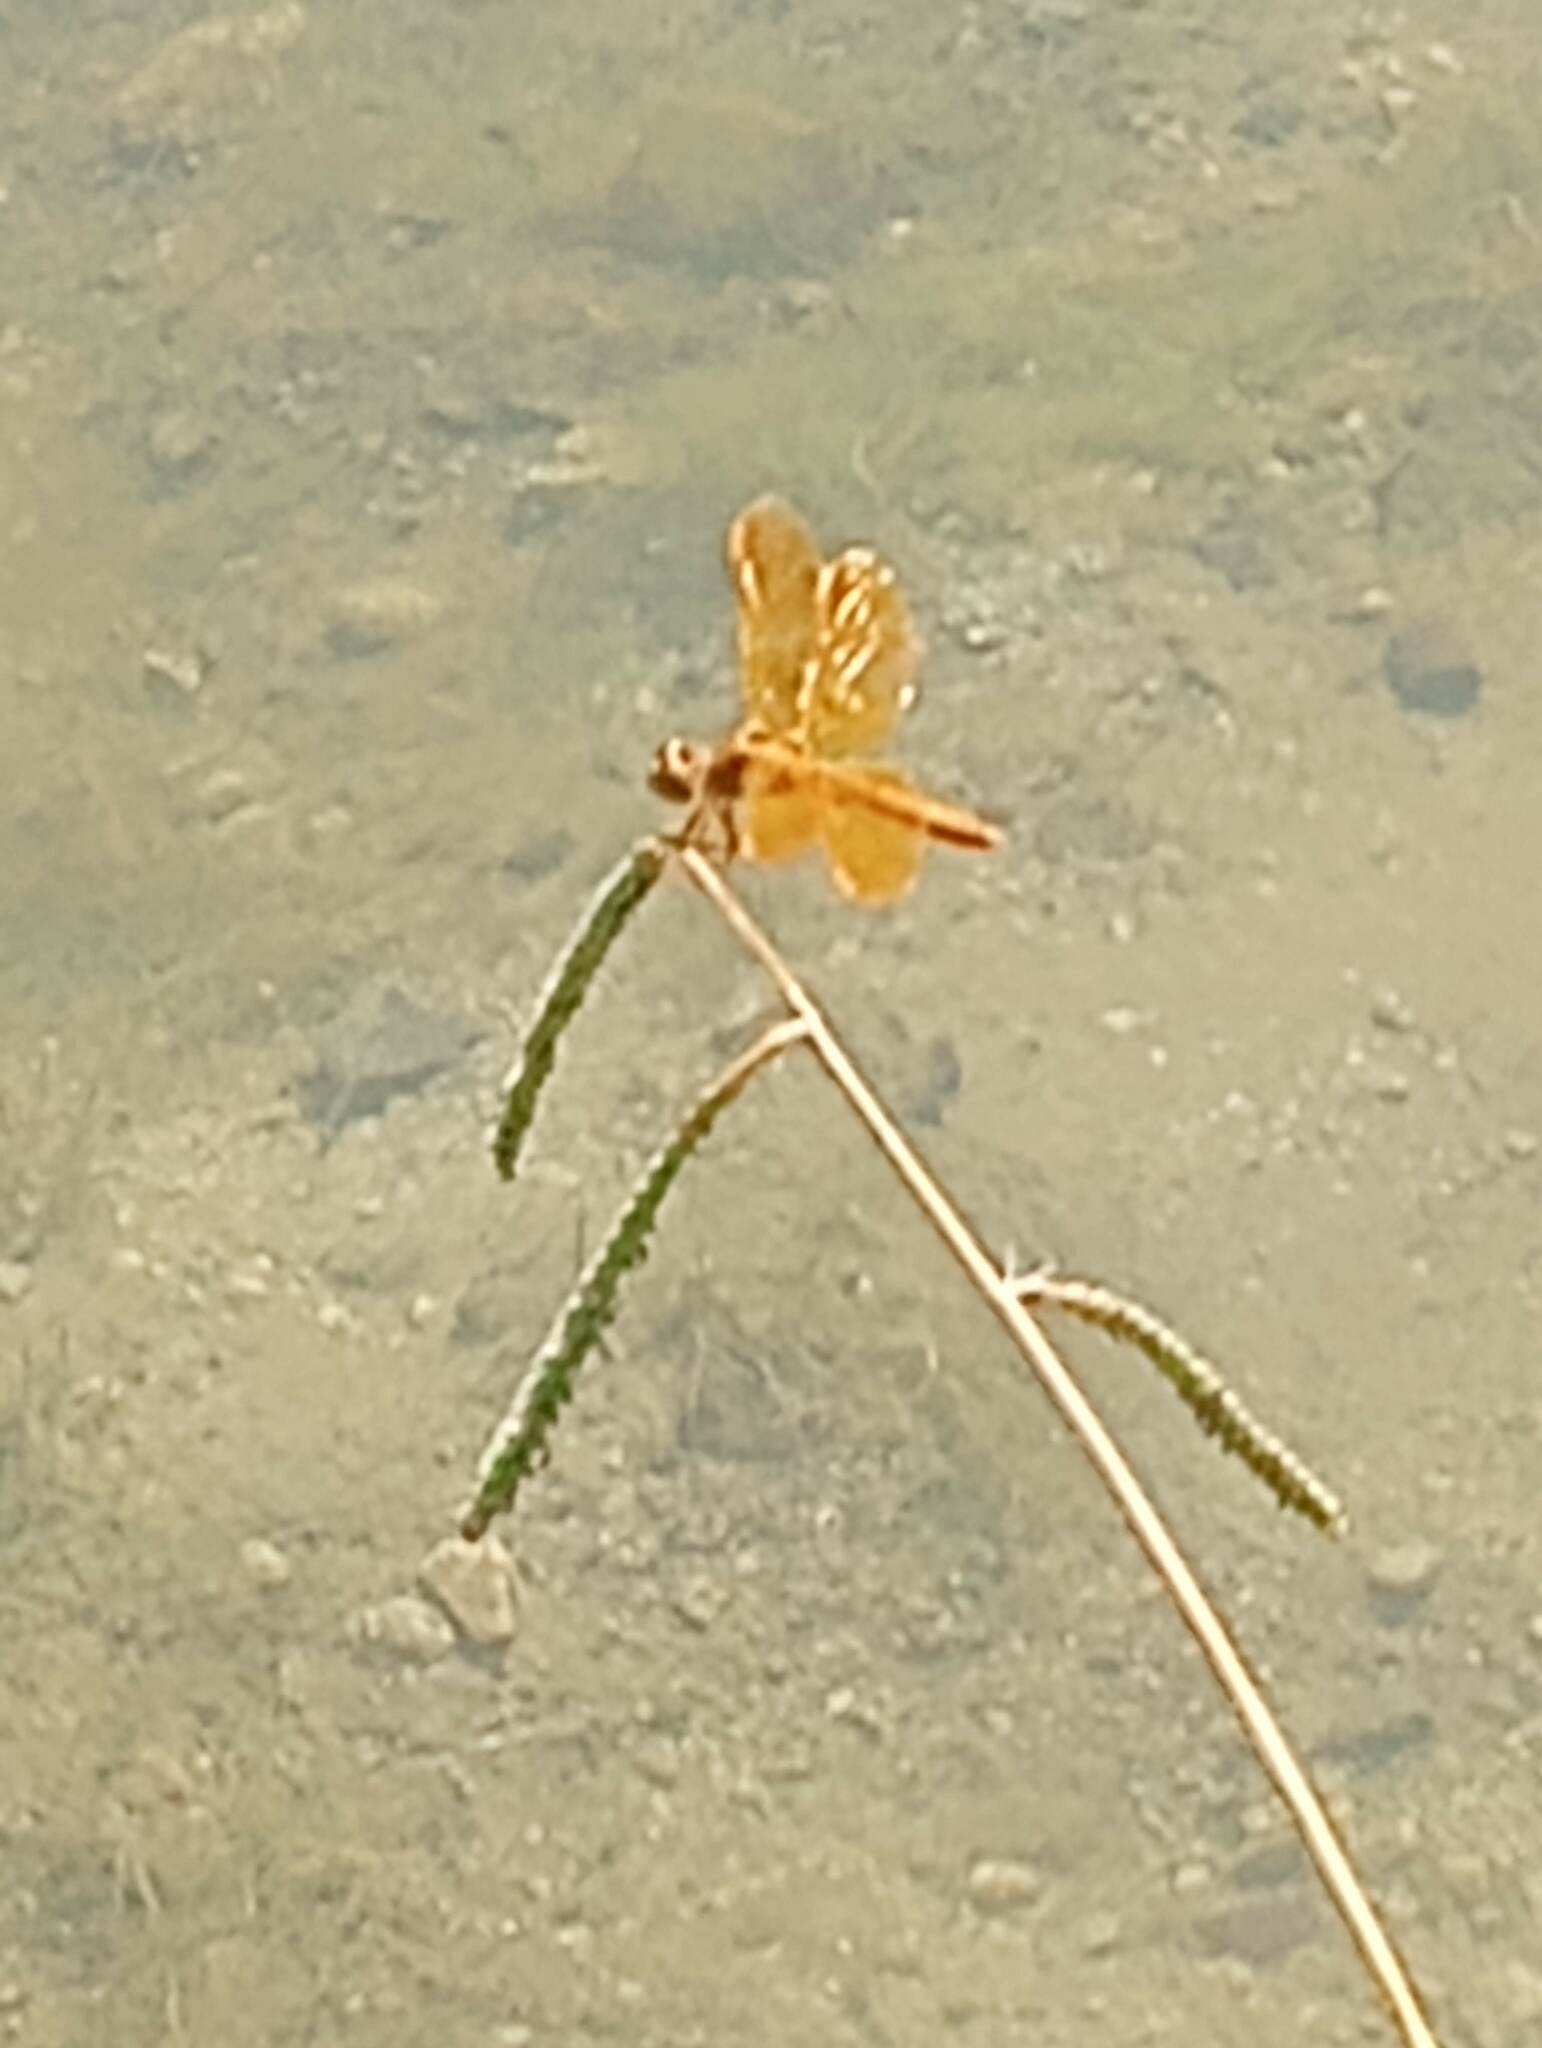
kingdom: Animalia
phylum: Arthropoda
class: Insecta
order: Odonata
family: Libellulidae
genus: Perithemis
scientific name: Perithemis intensa
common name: Mexican amberwing
